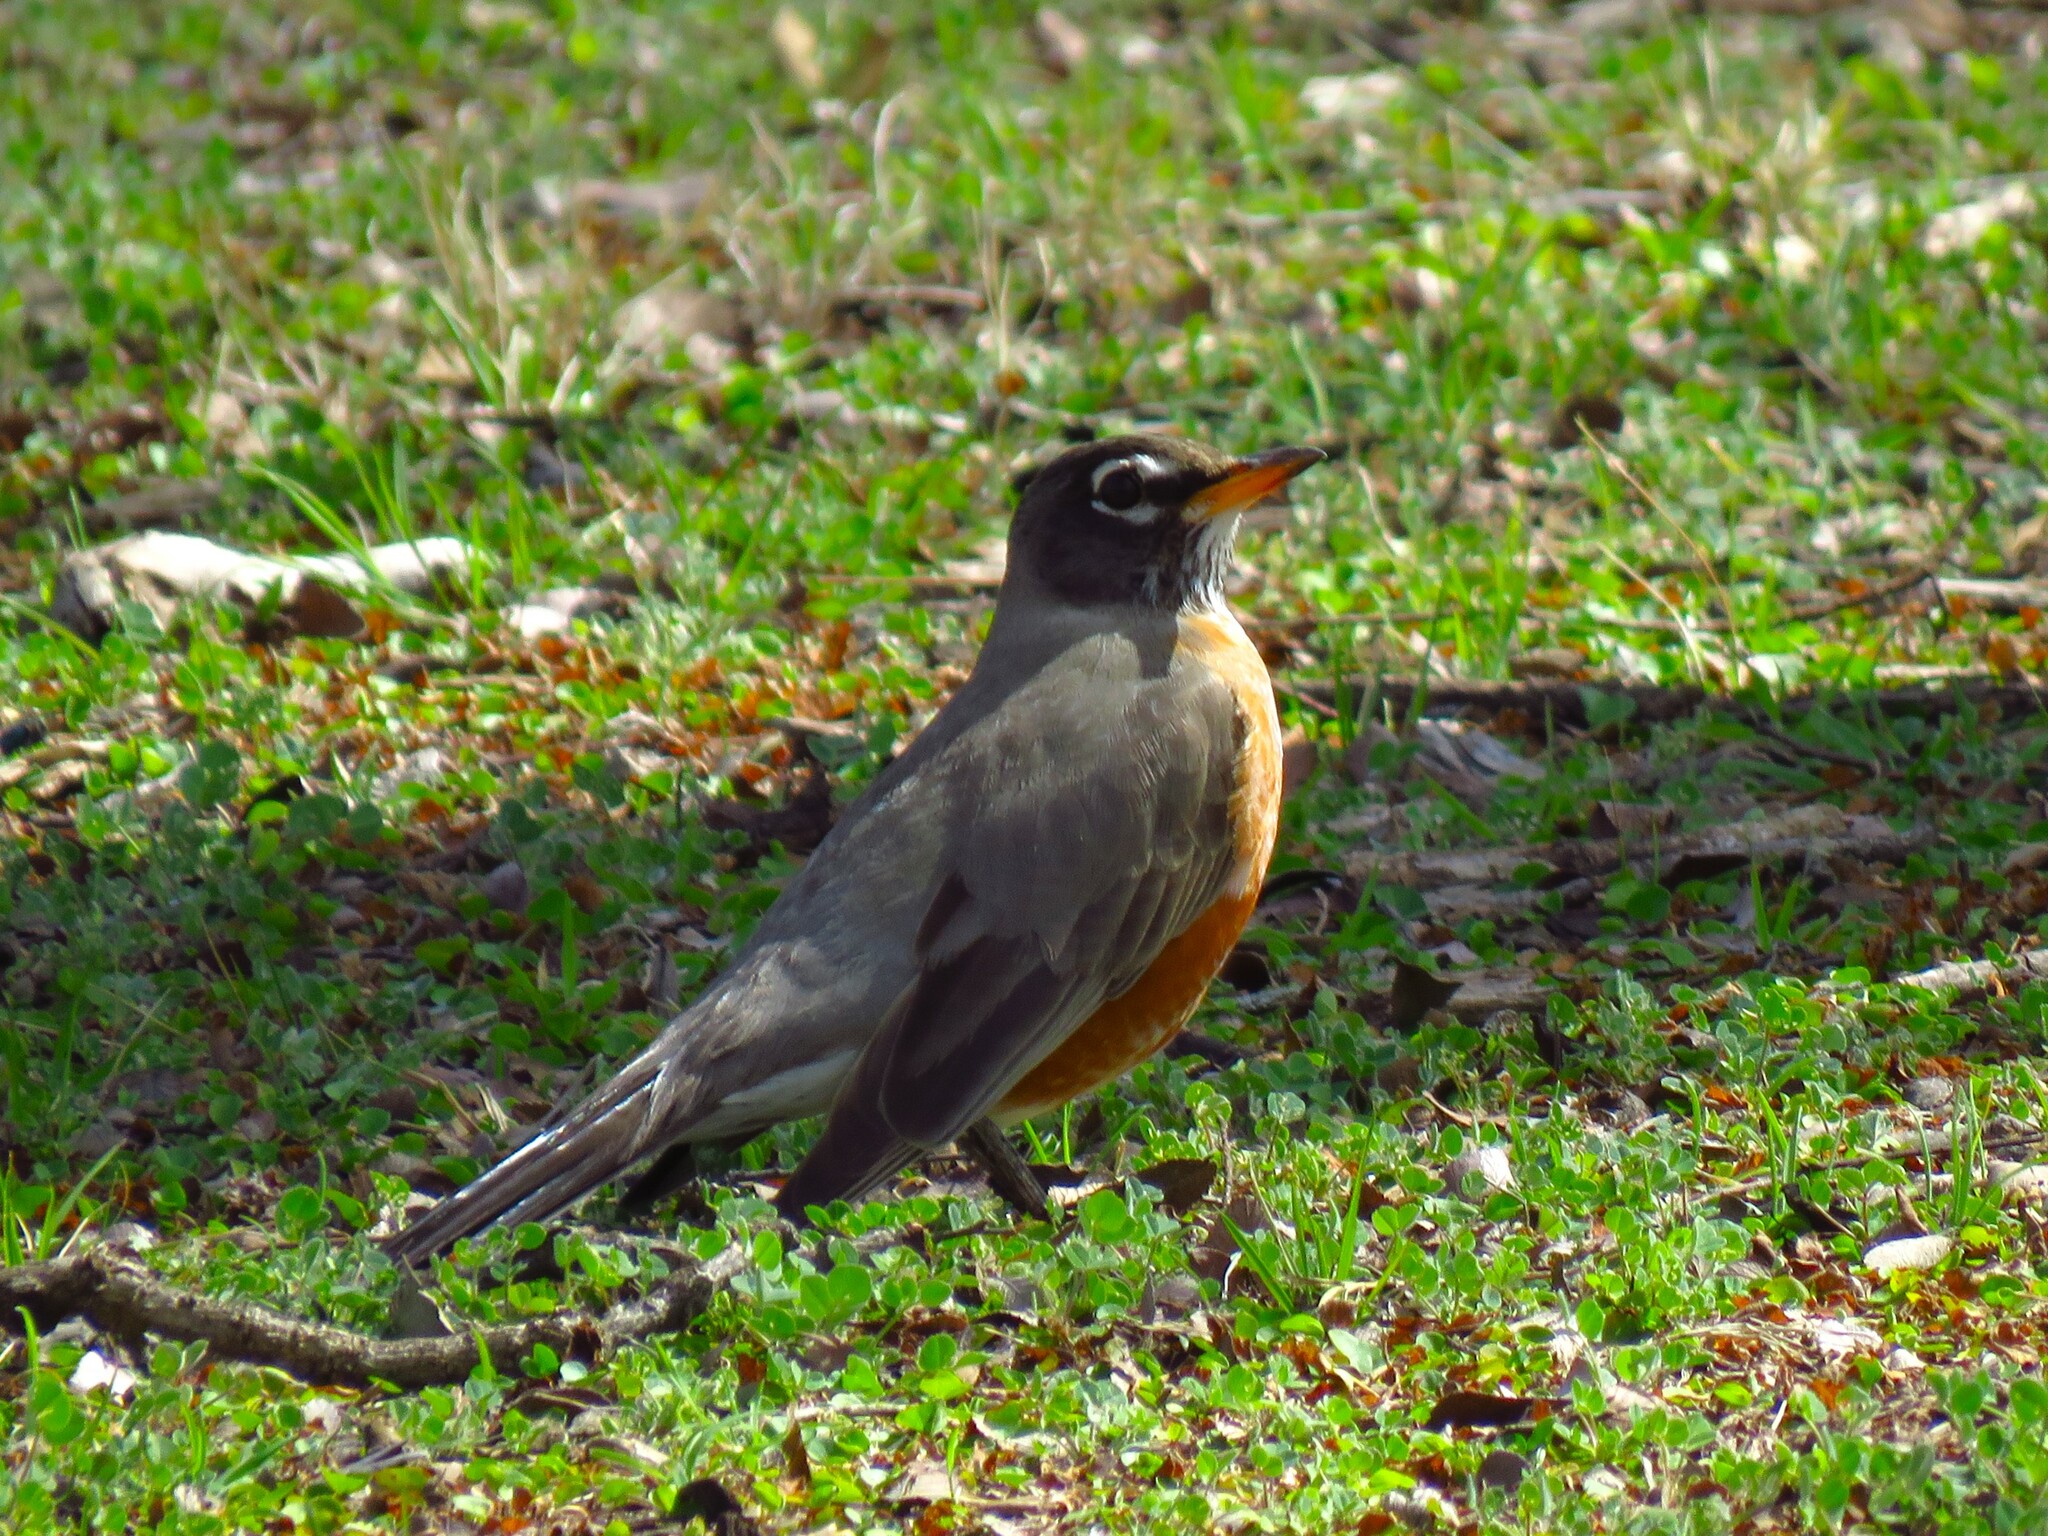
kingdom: Animalia
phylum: Chordata
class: Aves
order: Passeriformes
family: Turdidae
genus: Turdus
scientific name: Turdus migratorius
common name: American robin
